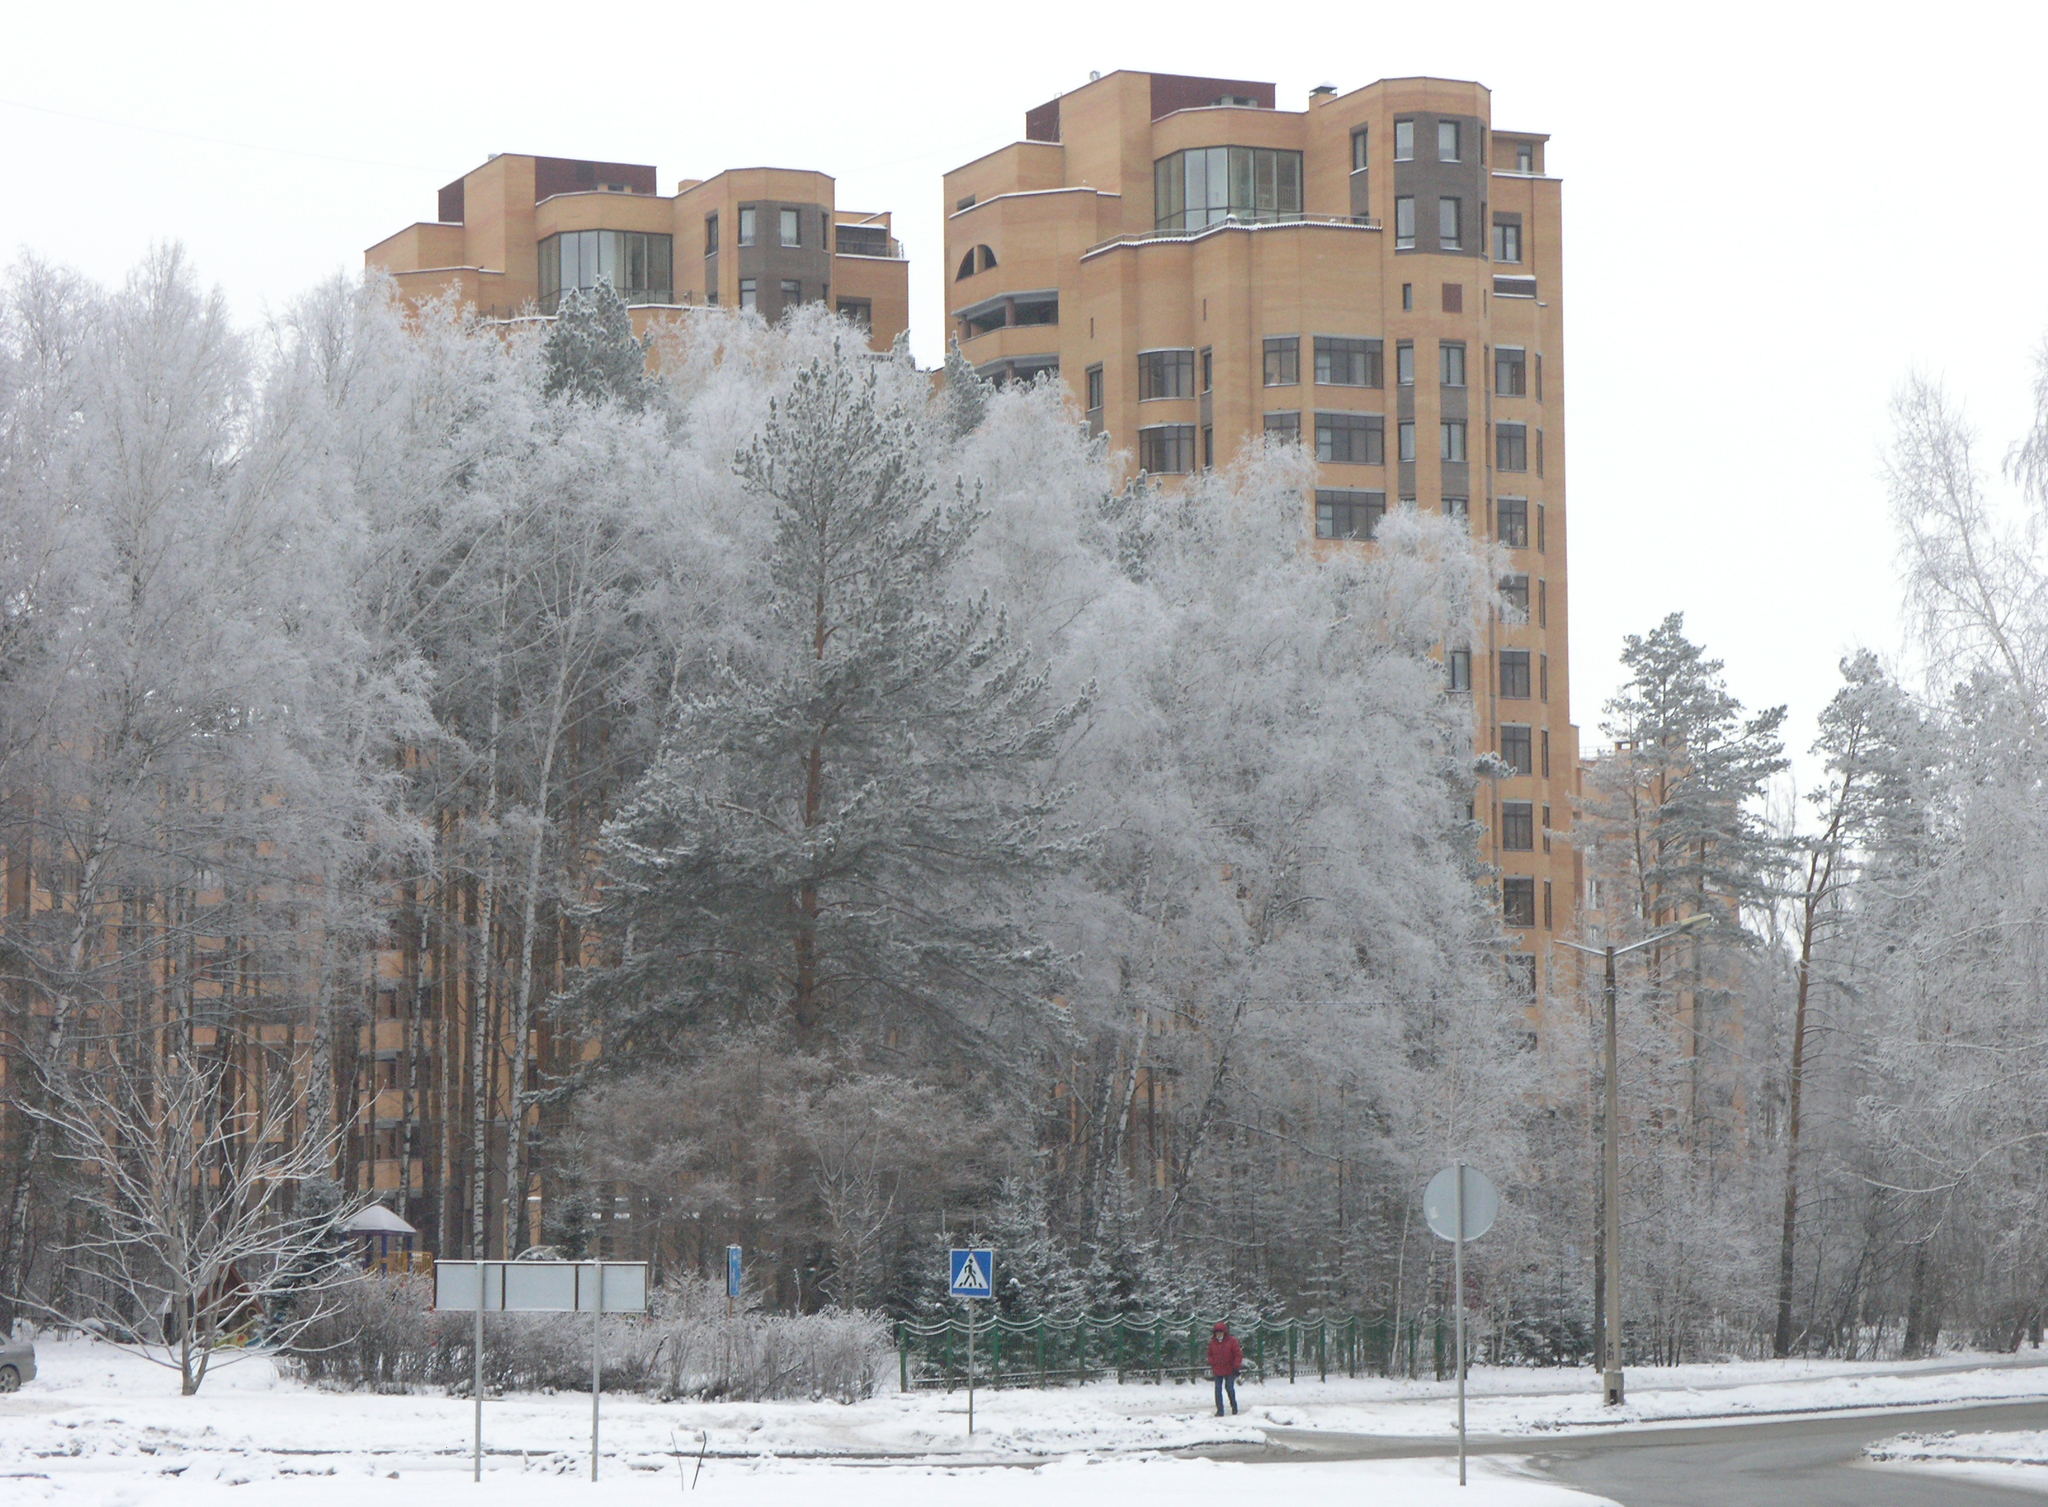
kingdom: Plantae
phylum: Tracheophyta
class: Magnoliopsida
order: Fagales
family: Betulaceae
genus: Betula
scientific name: Betula pendula
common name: Silver birch
